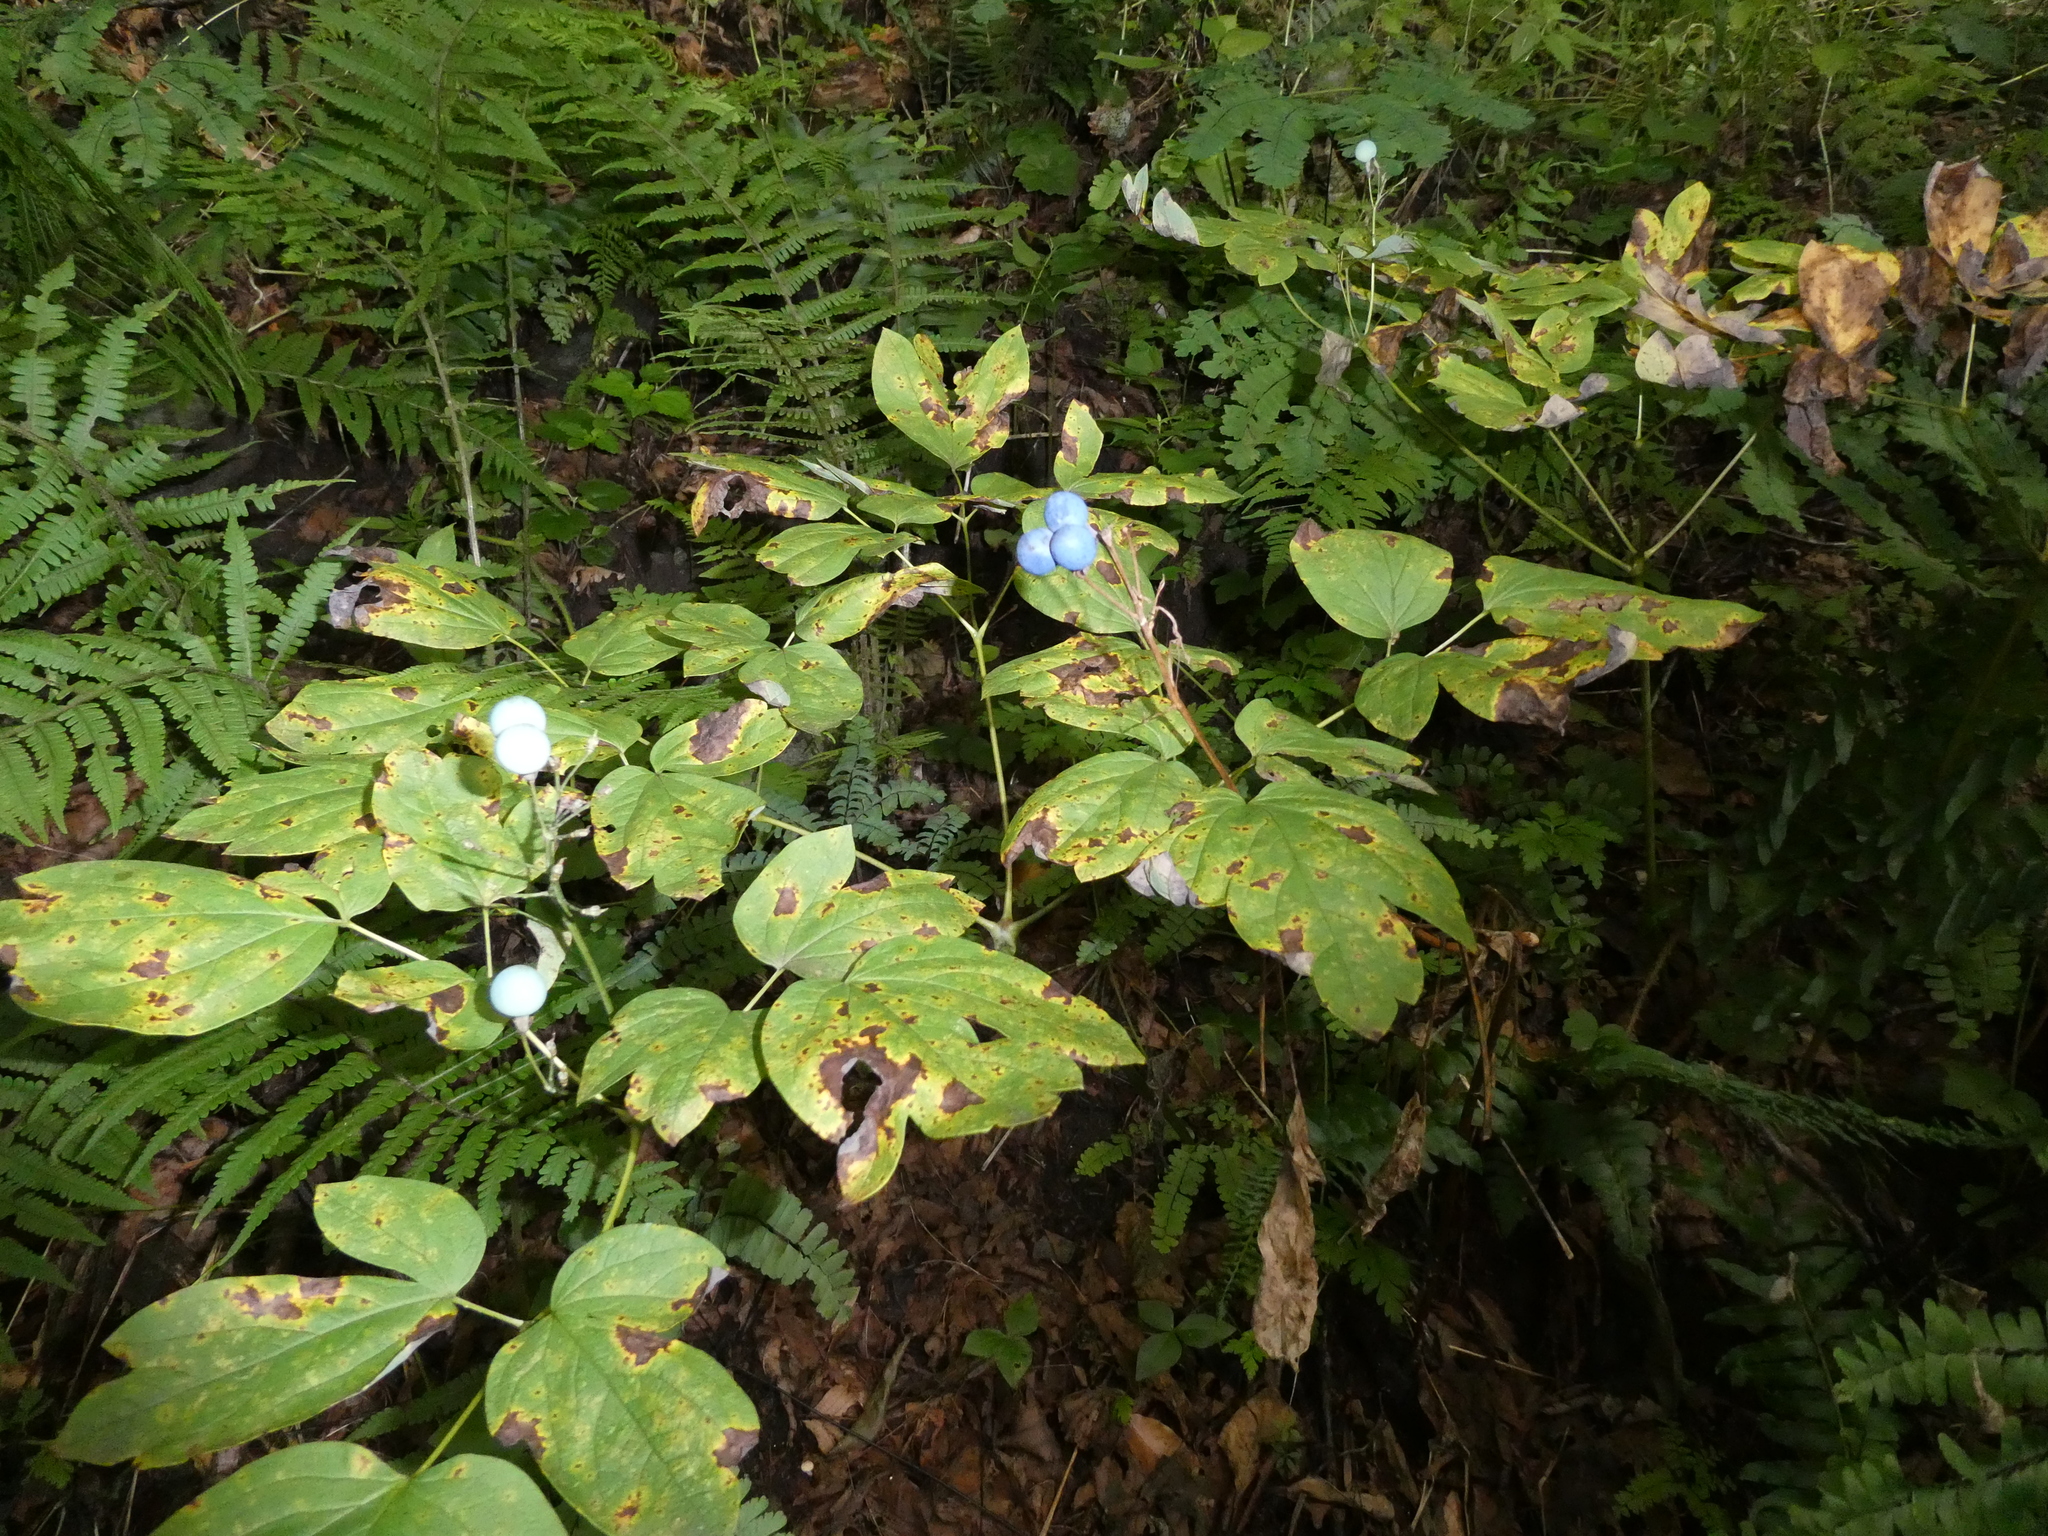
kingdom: Plantae
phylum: Tracheophyta
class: Magnoliopsida
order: Ranunculales
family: Berberidaceae
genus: Caulophyllum
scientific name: Caulophyllum
